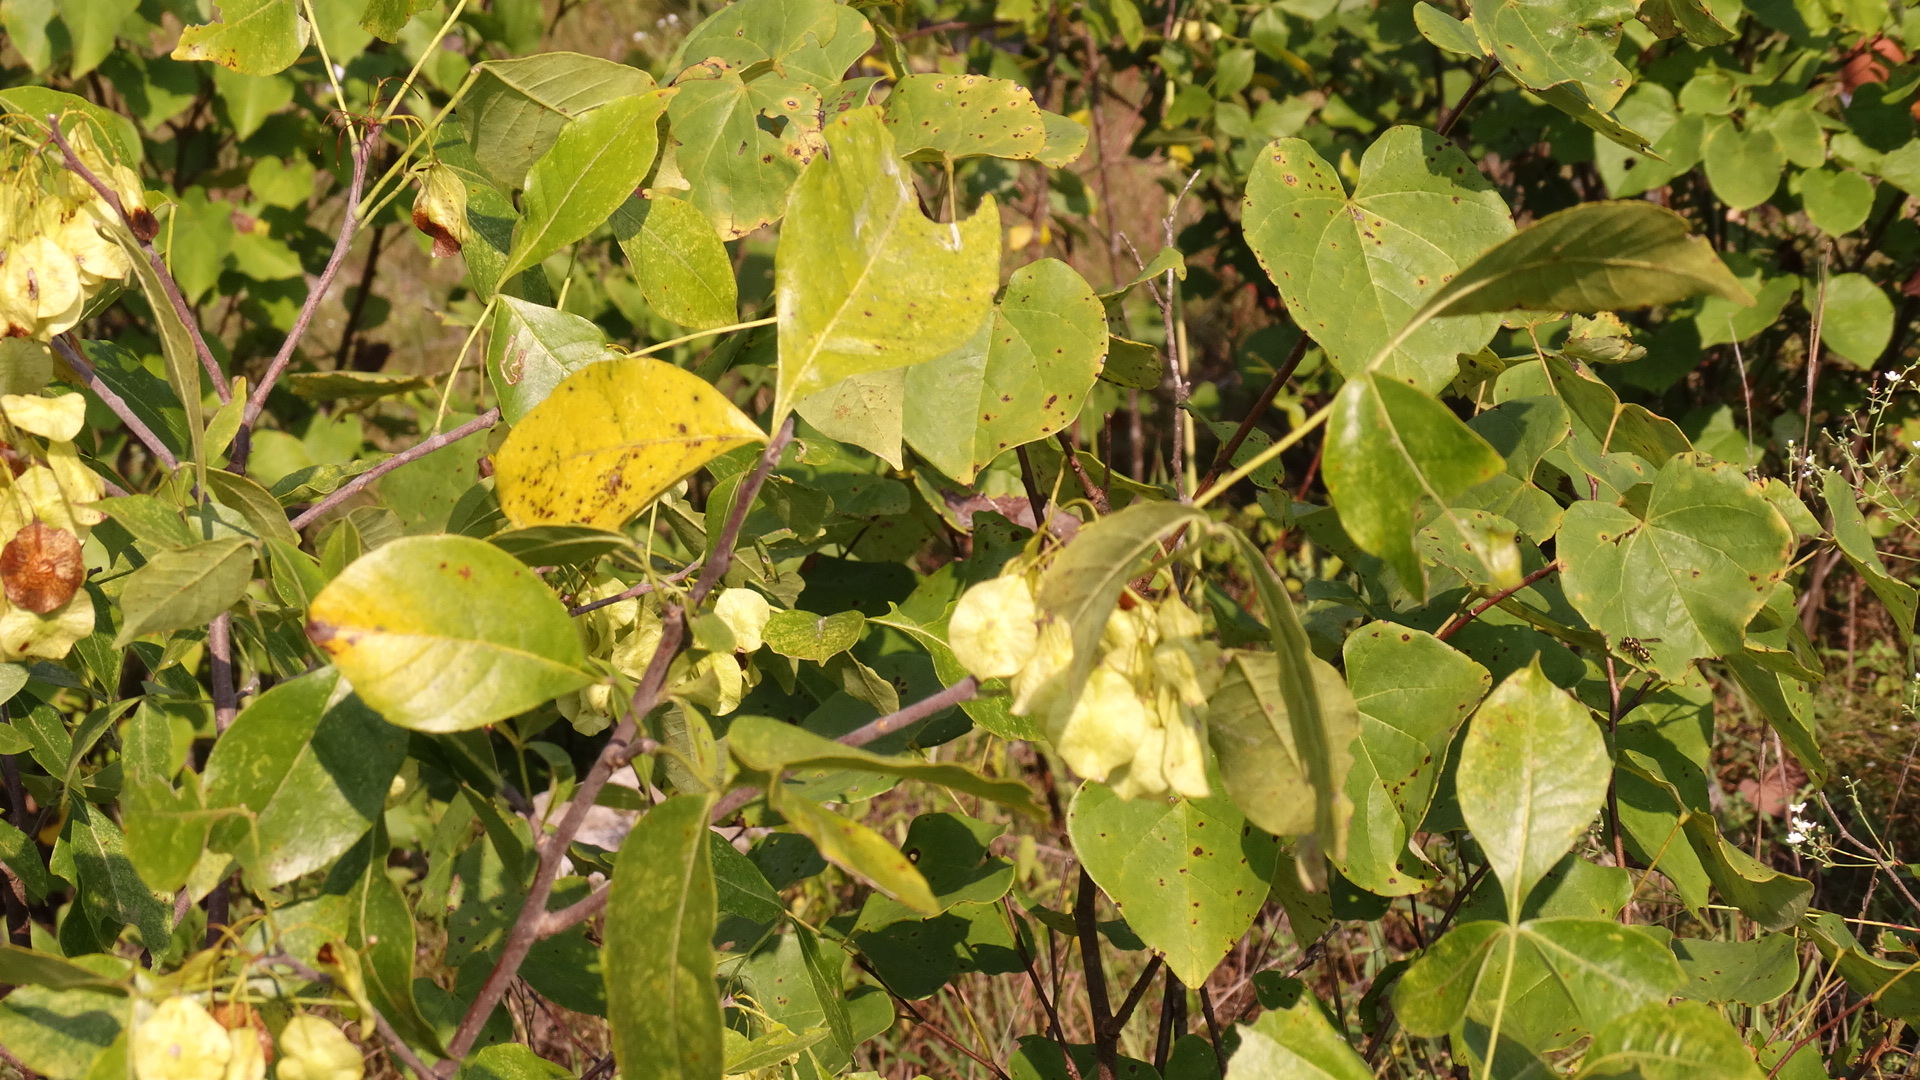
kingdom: Plantae
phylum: Tracheophyta
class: Magnoliopsida
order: Sapindales
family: Rutaceae
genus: Ptelea
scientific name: Ptelea trifoliata
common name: Common hop-tree
